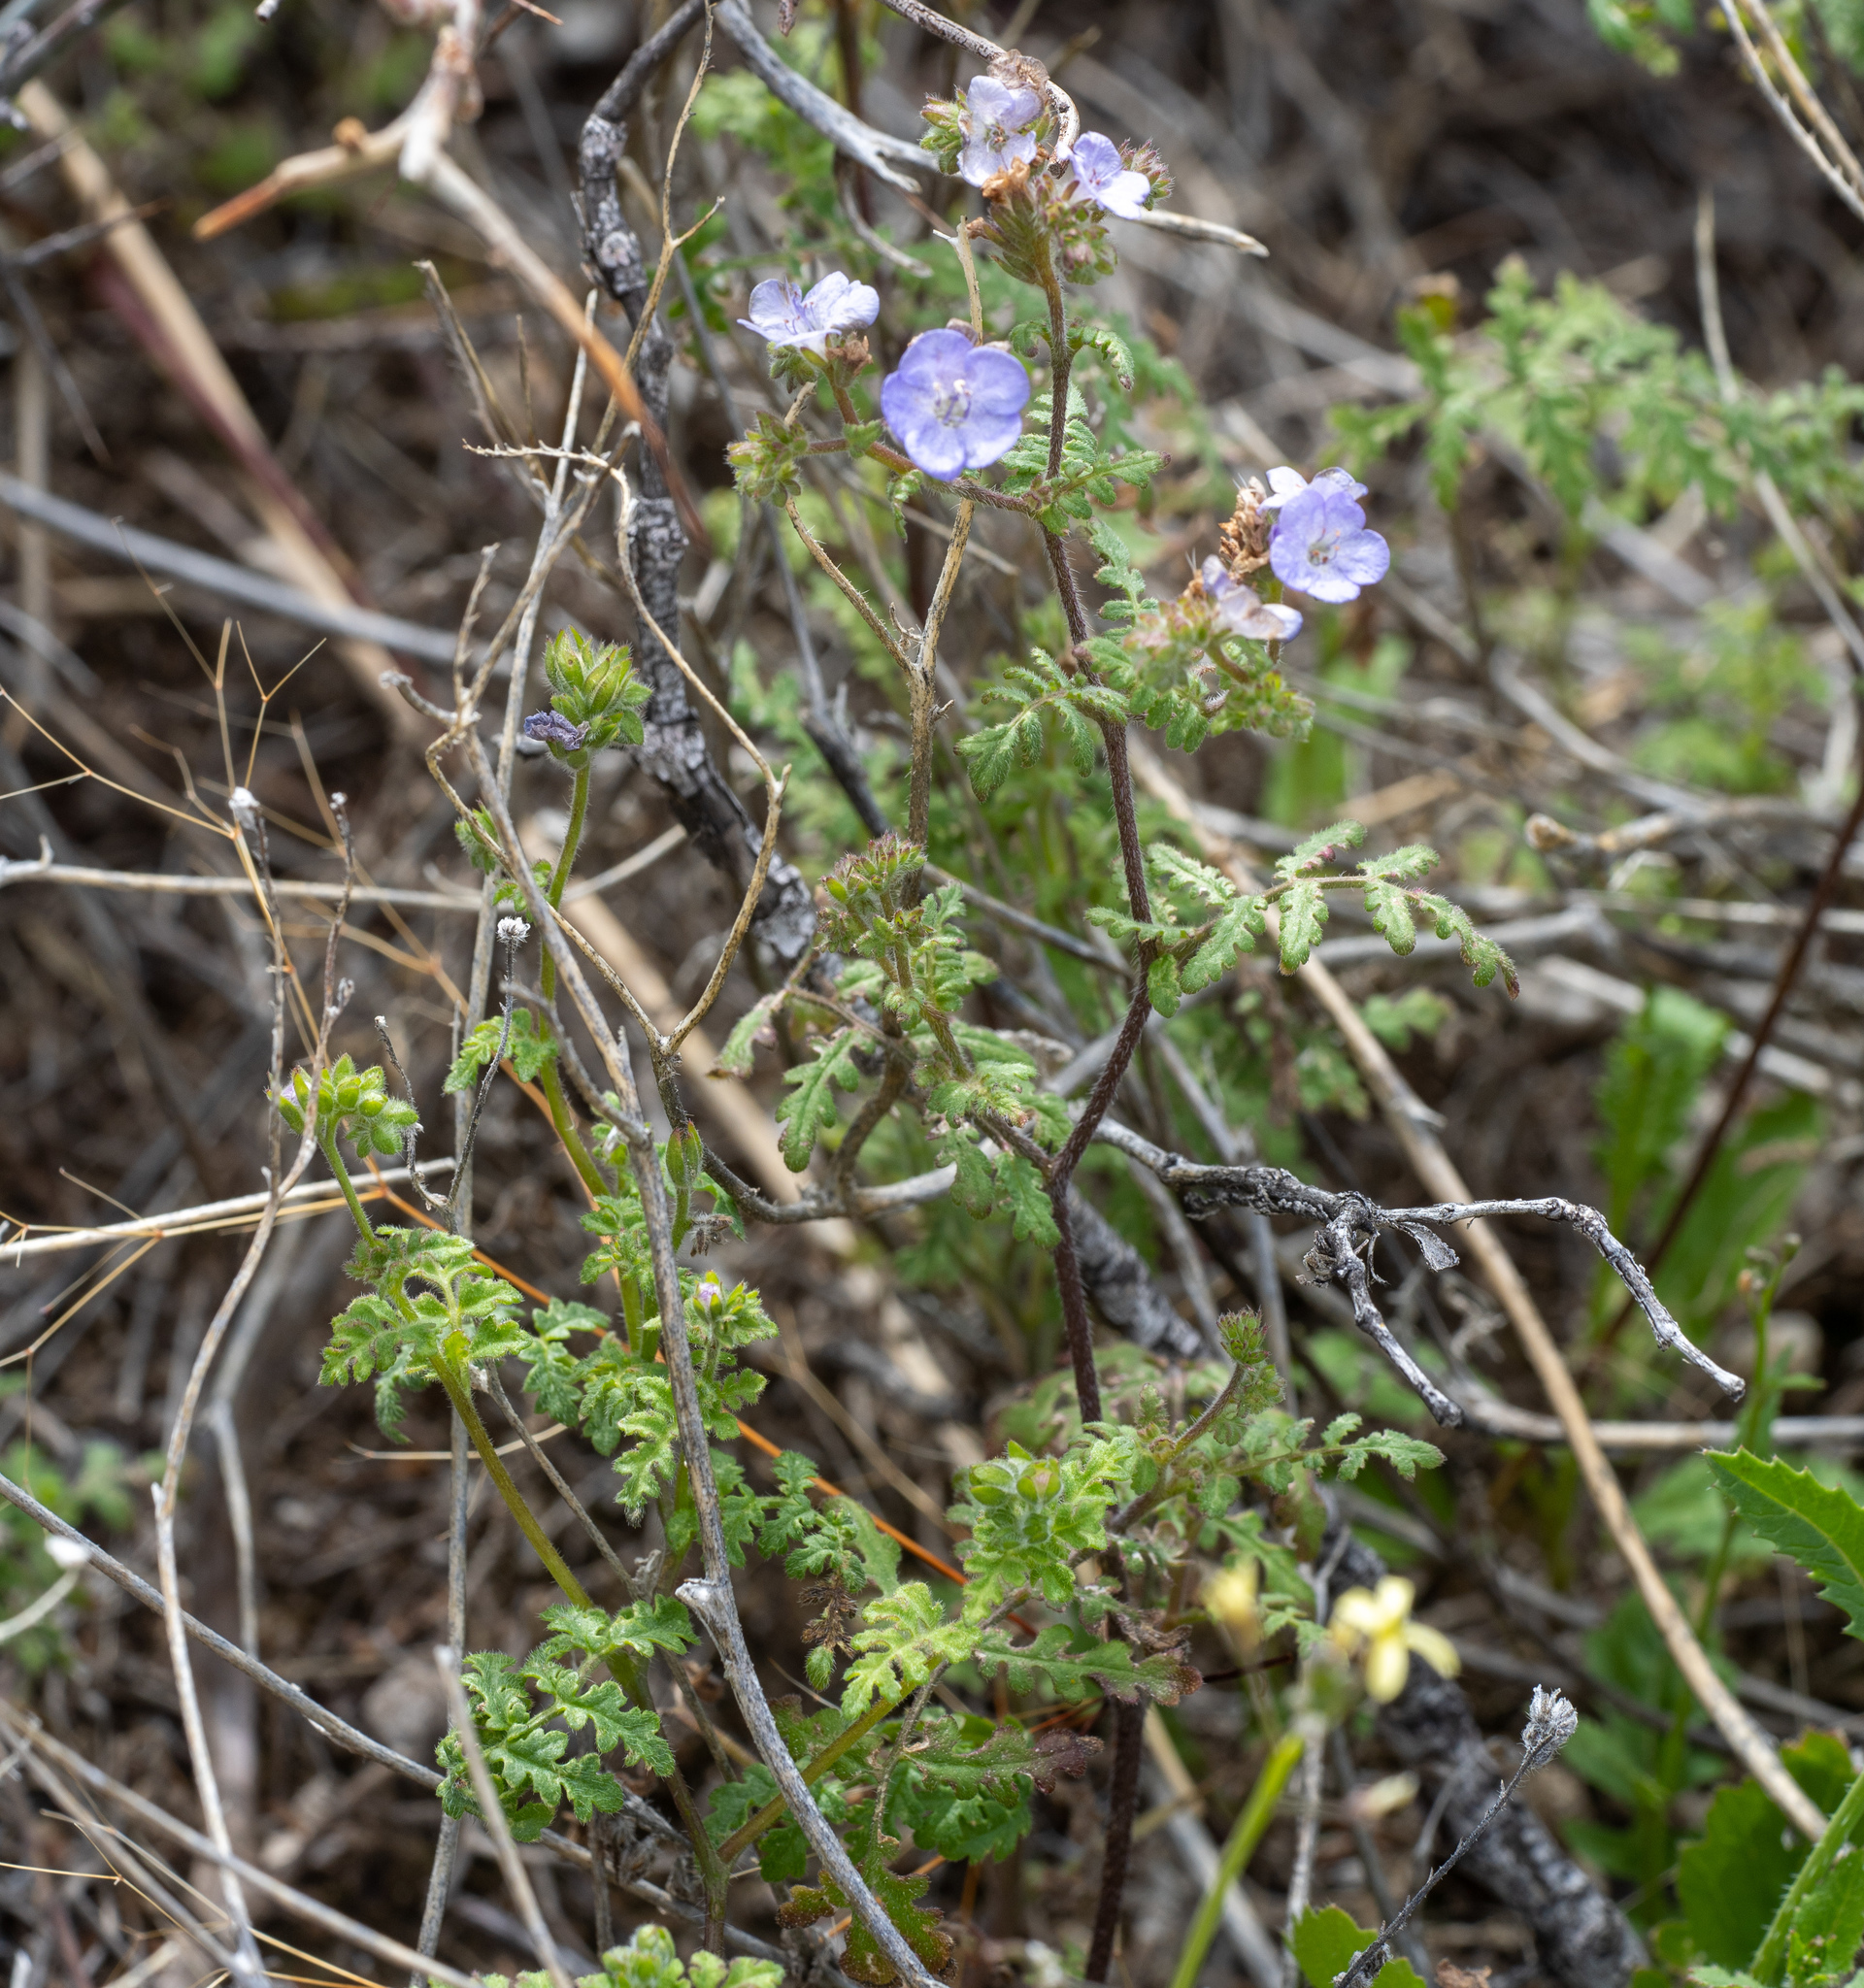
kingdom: Plantae
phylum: Tracheophyta
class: Magnoliopsida
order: Boraginales
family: Hydrophyllaceae
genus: Phacelia
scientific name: Phacelia distans
